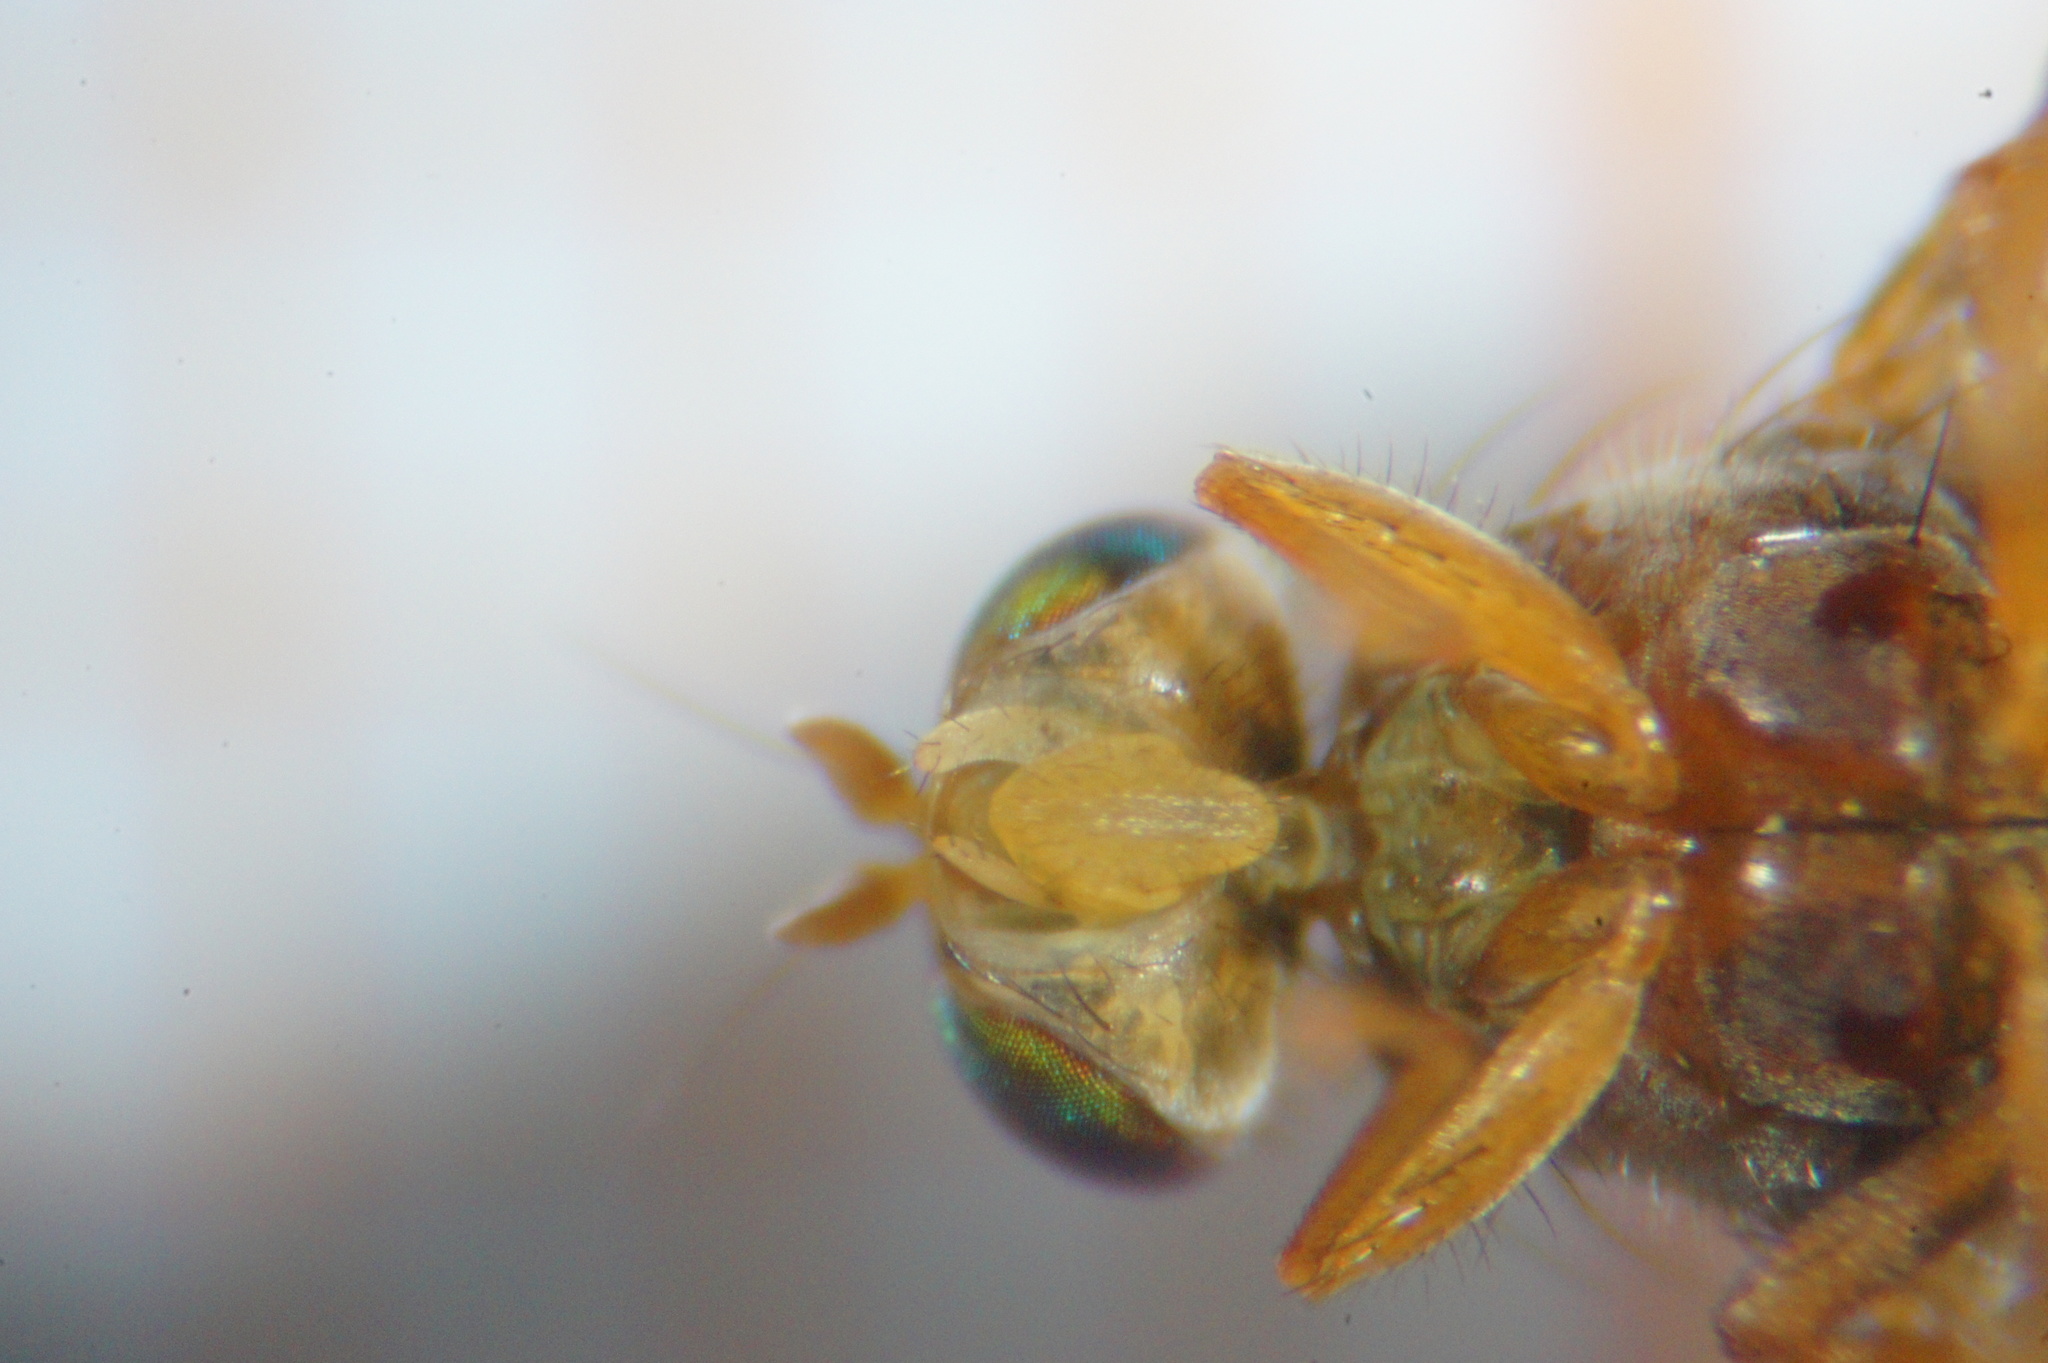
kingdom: Animalia
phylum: Arthropoda
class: Insecta
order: Diptera
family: Tephritidae
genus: Anomoia
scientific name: Anomoia purmunda
